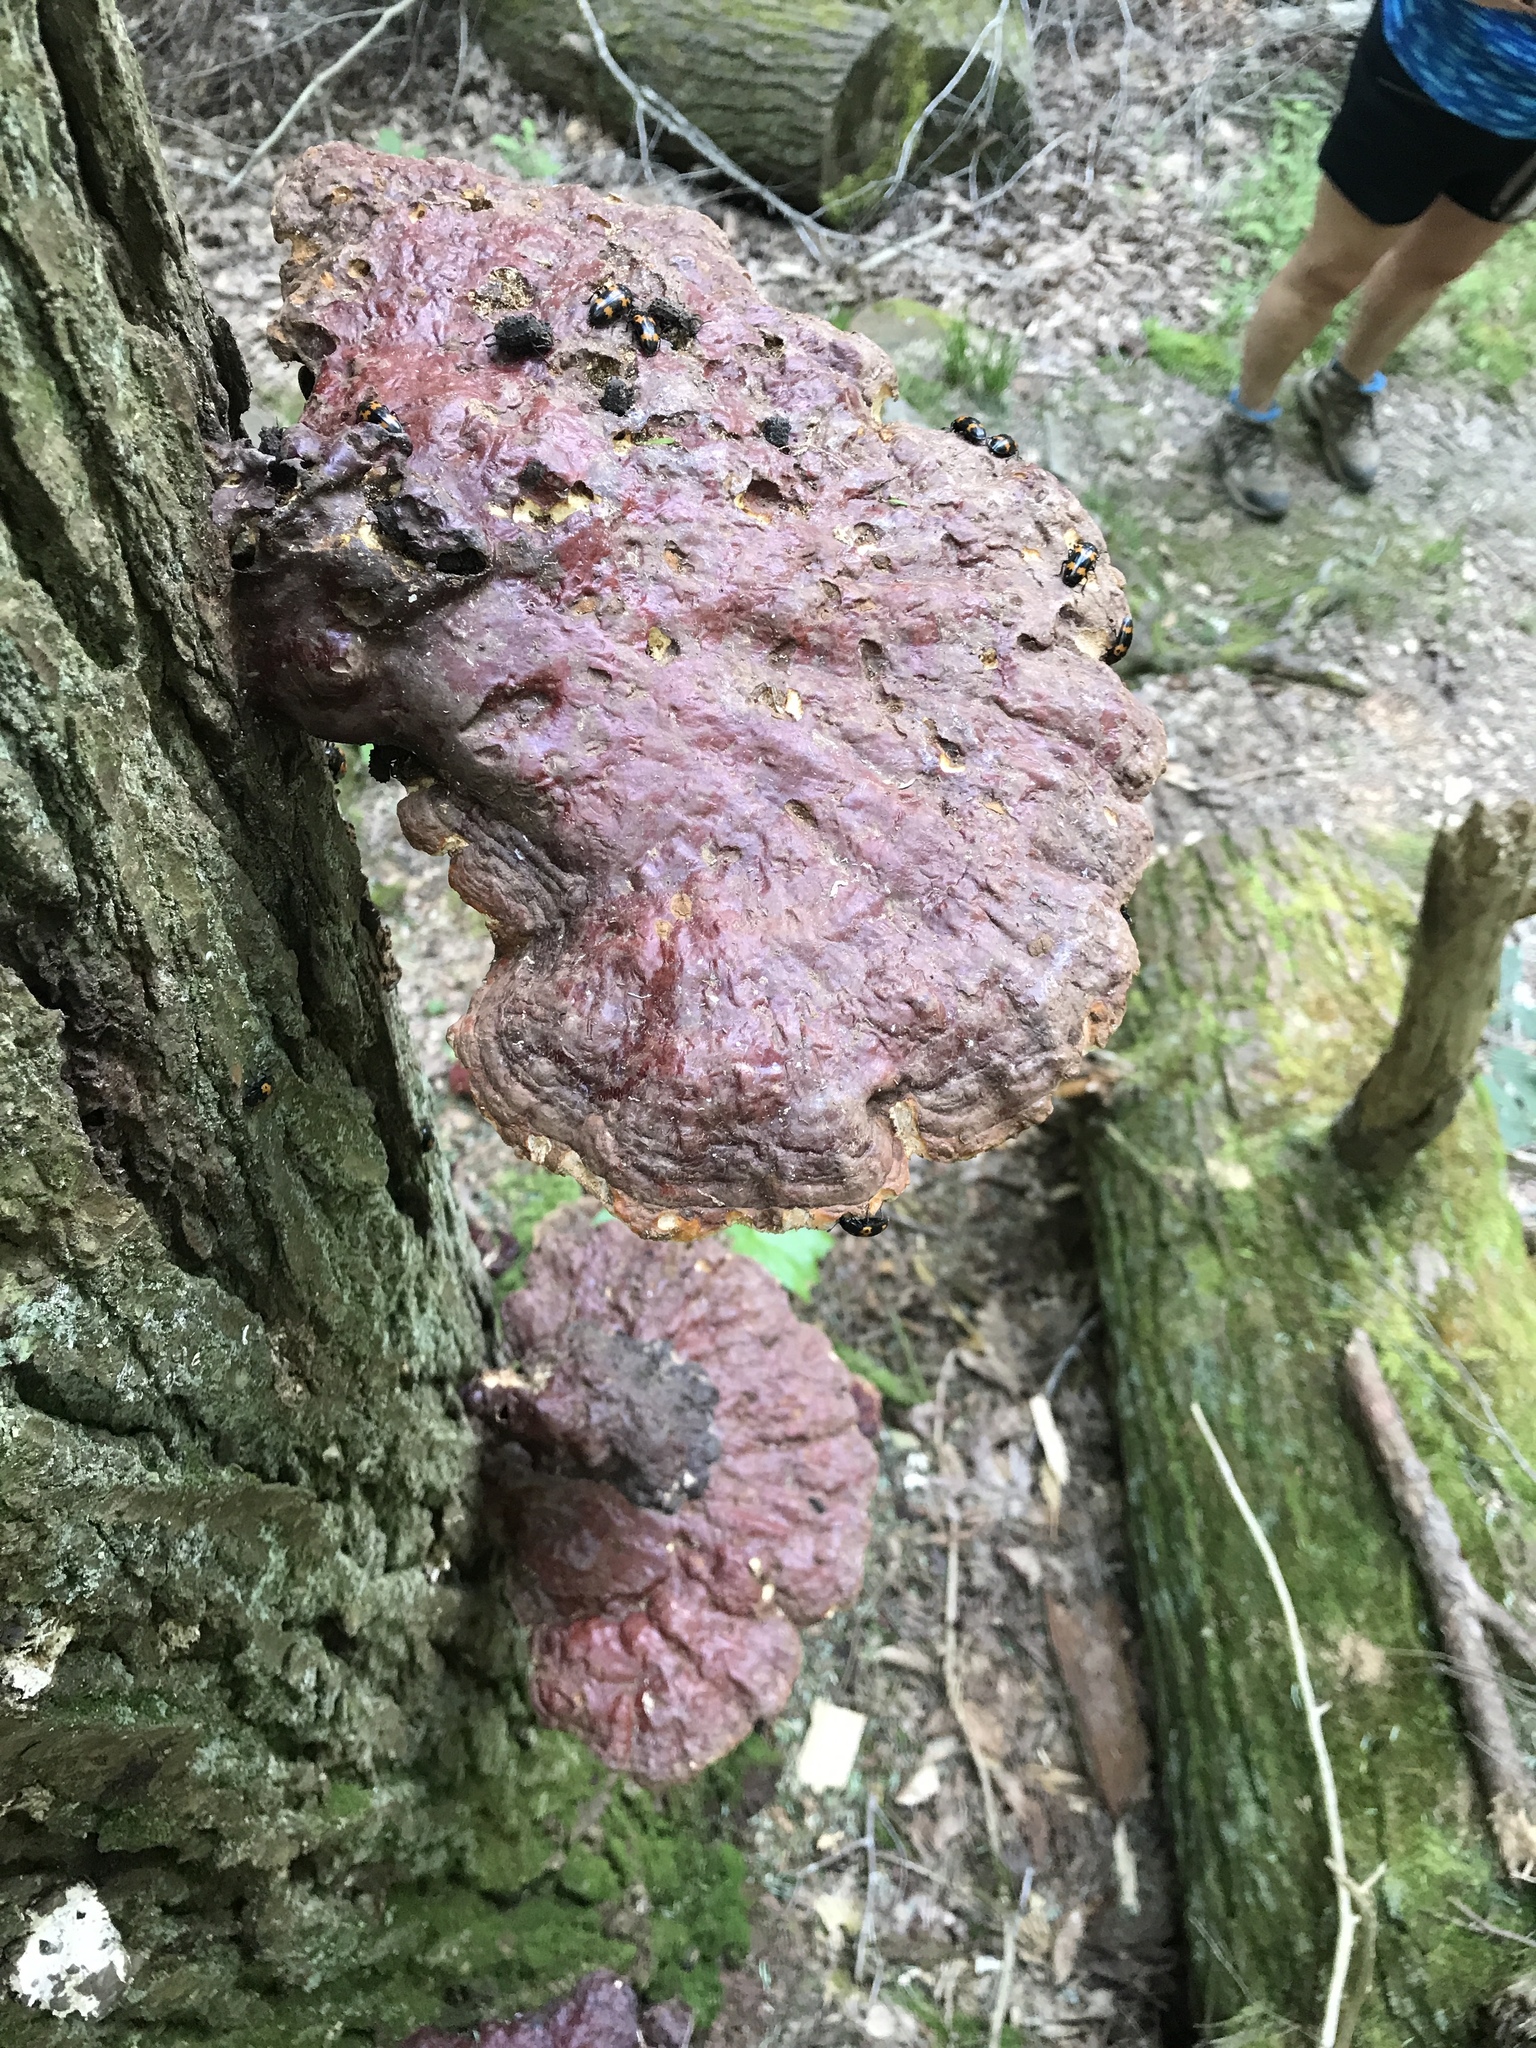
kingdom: Fungi
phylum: Basidiomycota
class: Agaricomycetes
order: Polyporales
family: Polyporaceae
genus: Ganoderma
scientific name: Ganoderma tsugae
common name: Hemlock varnish shelf
